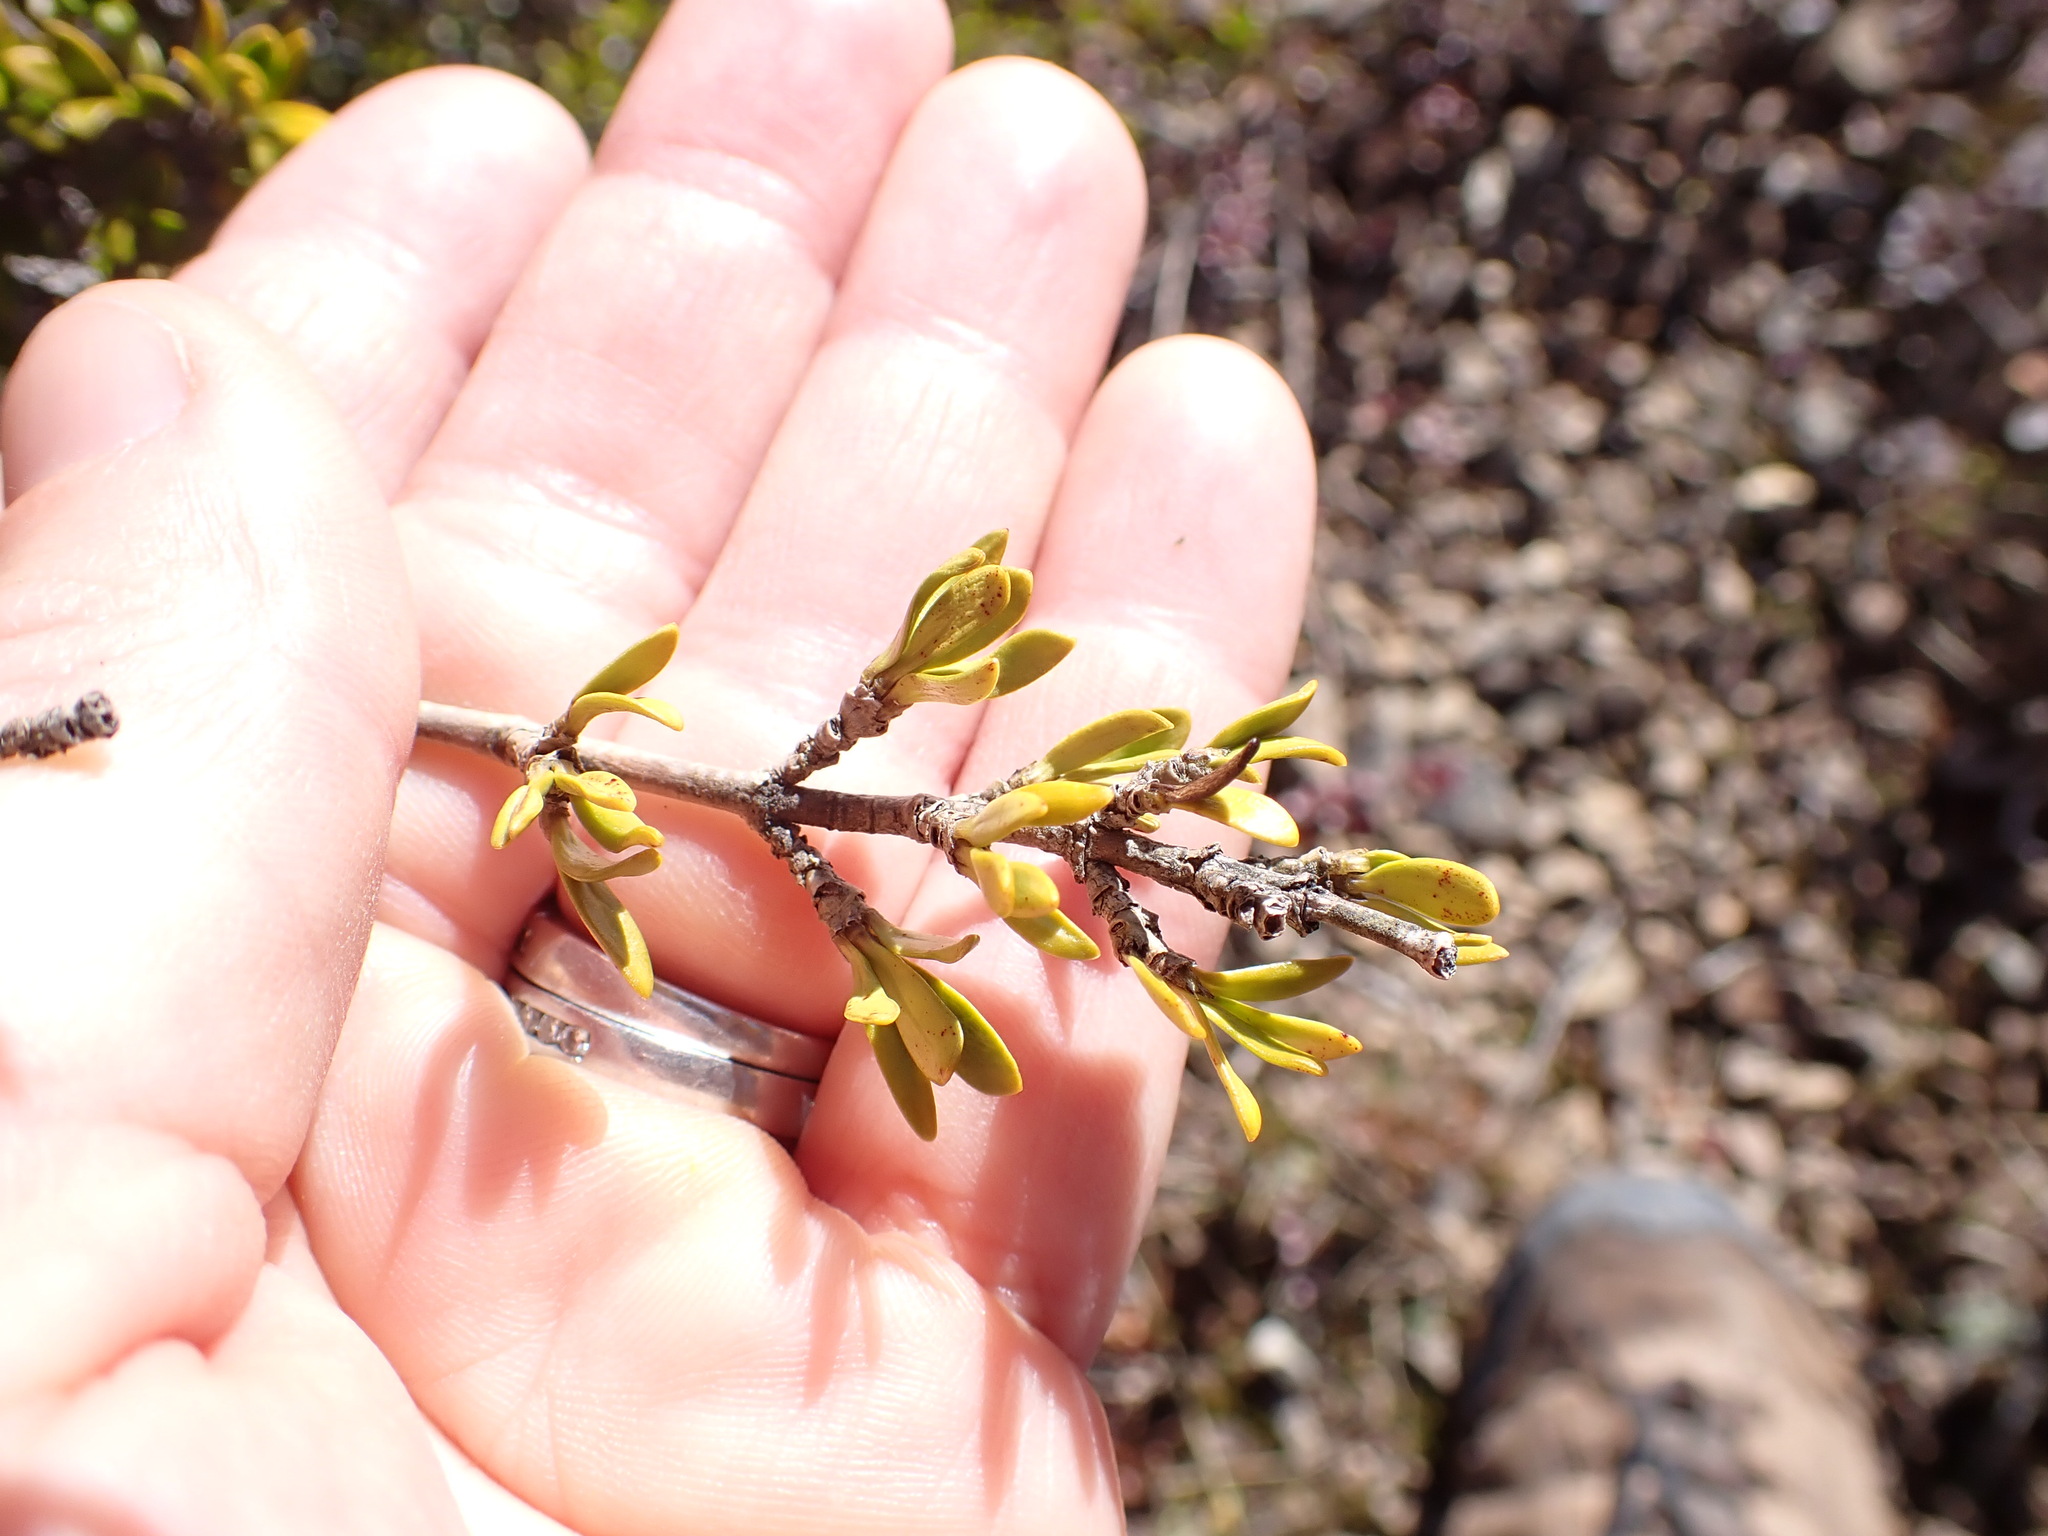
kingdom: Plantae
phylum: Tracheophyta
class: Magnoliopsida
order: Gentianales
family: Rubiaceae
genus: Coprosma
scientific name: Coprosma pseudocuneata
